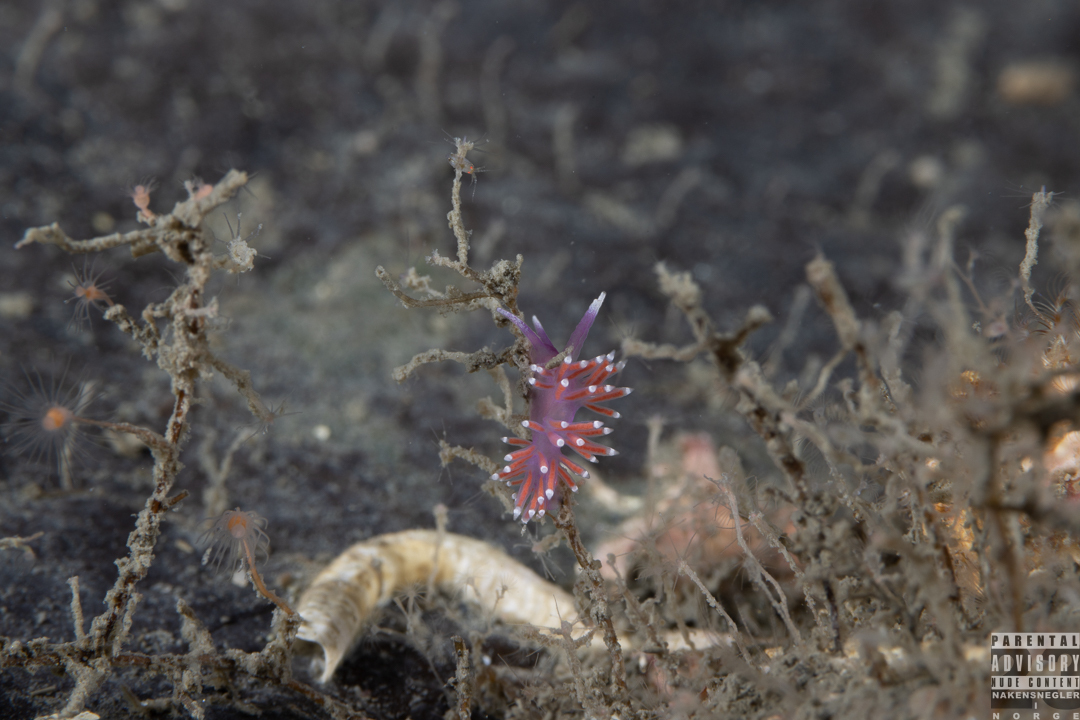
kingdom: Animalia
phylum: Mollusca
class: Gastropoda
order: Nudibranchia
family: Flabellinidae
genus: Edmundsella
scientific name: Edmundsella pedata
